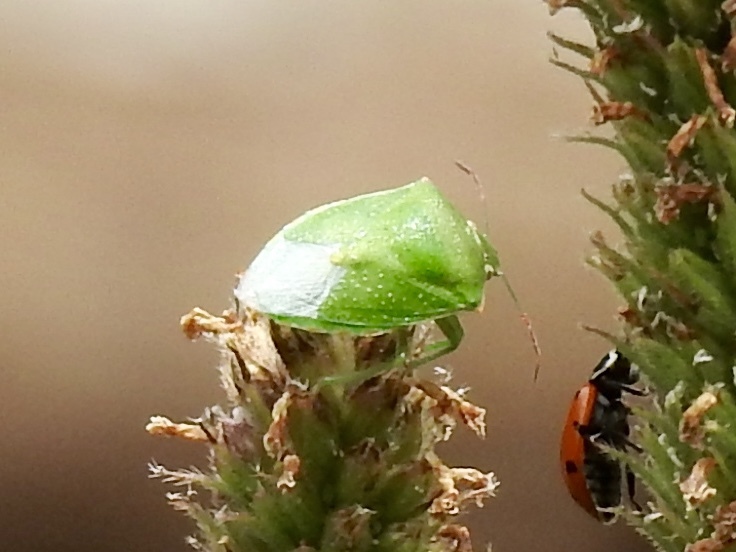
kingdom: Animalia
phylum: Arthropoda
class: Insecta
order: Hemiptera
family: Pentatomidae
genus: Thyanta
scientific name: Thyanta accerra
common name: Stink bug
